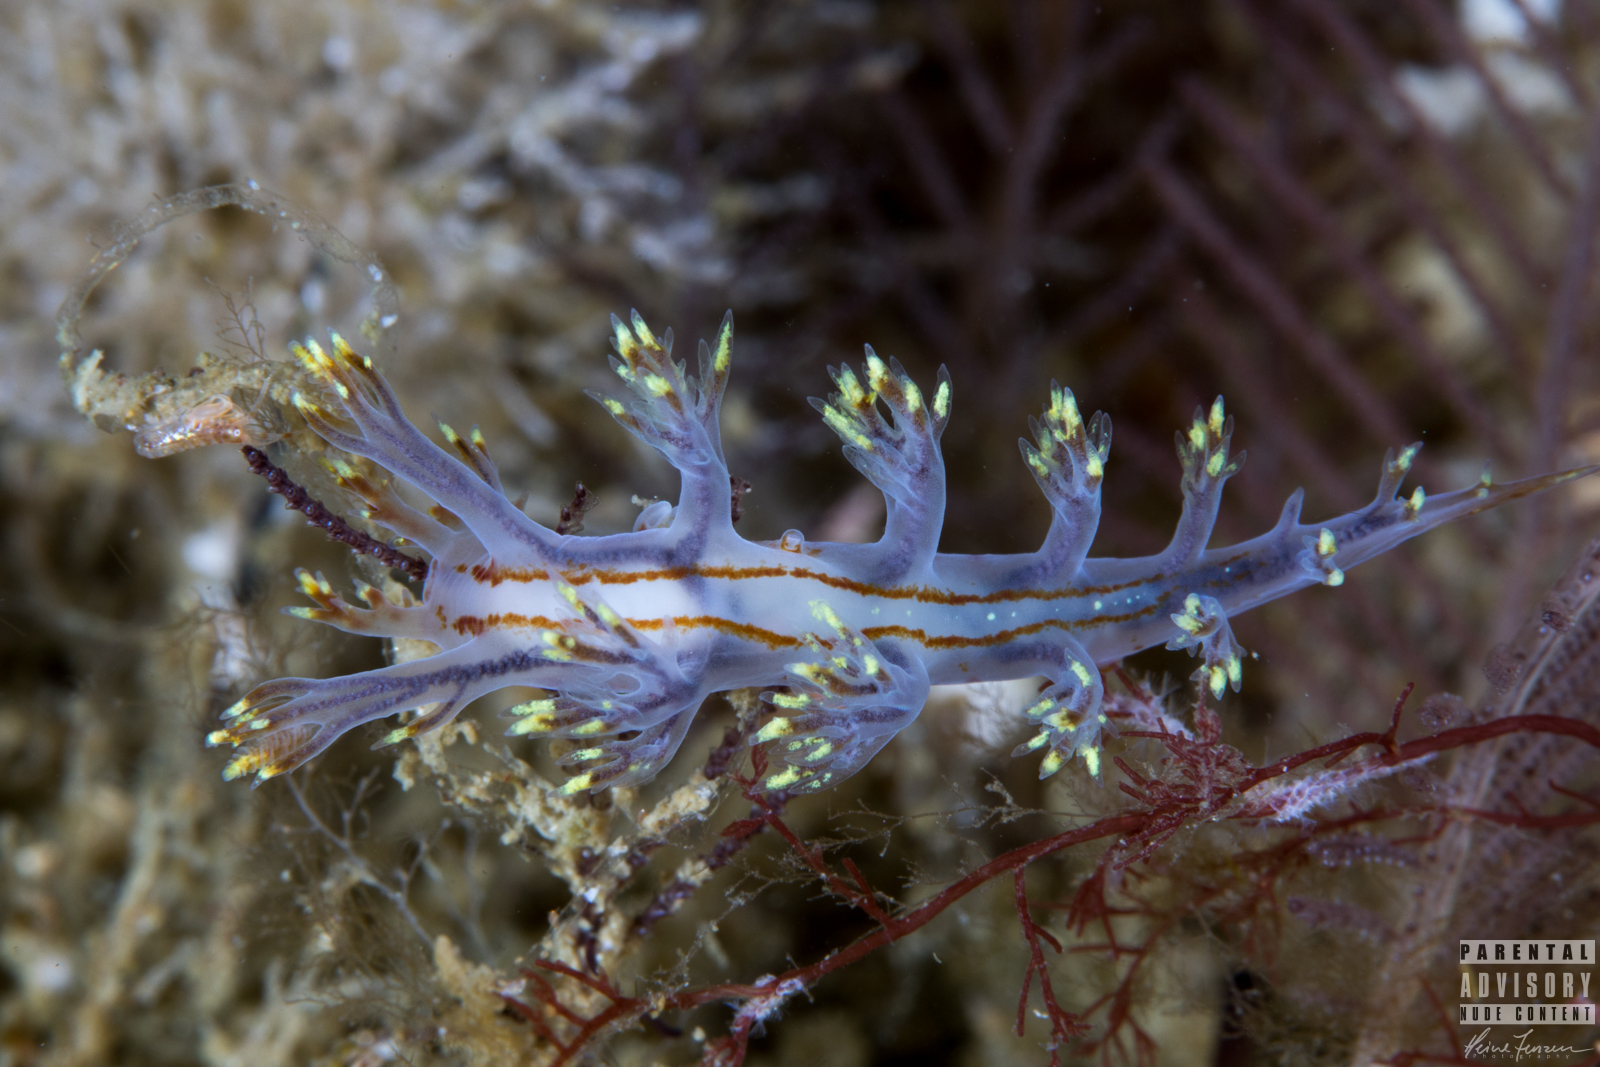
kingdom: Animalia
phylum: Mollusca
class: Gastropoda
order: Nudibranchia
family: Dendronotidae
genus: Dendronotus
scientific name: Dendronotus yrjargul
